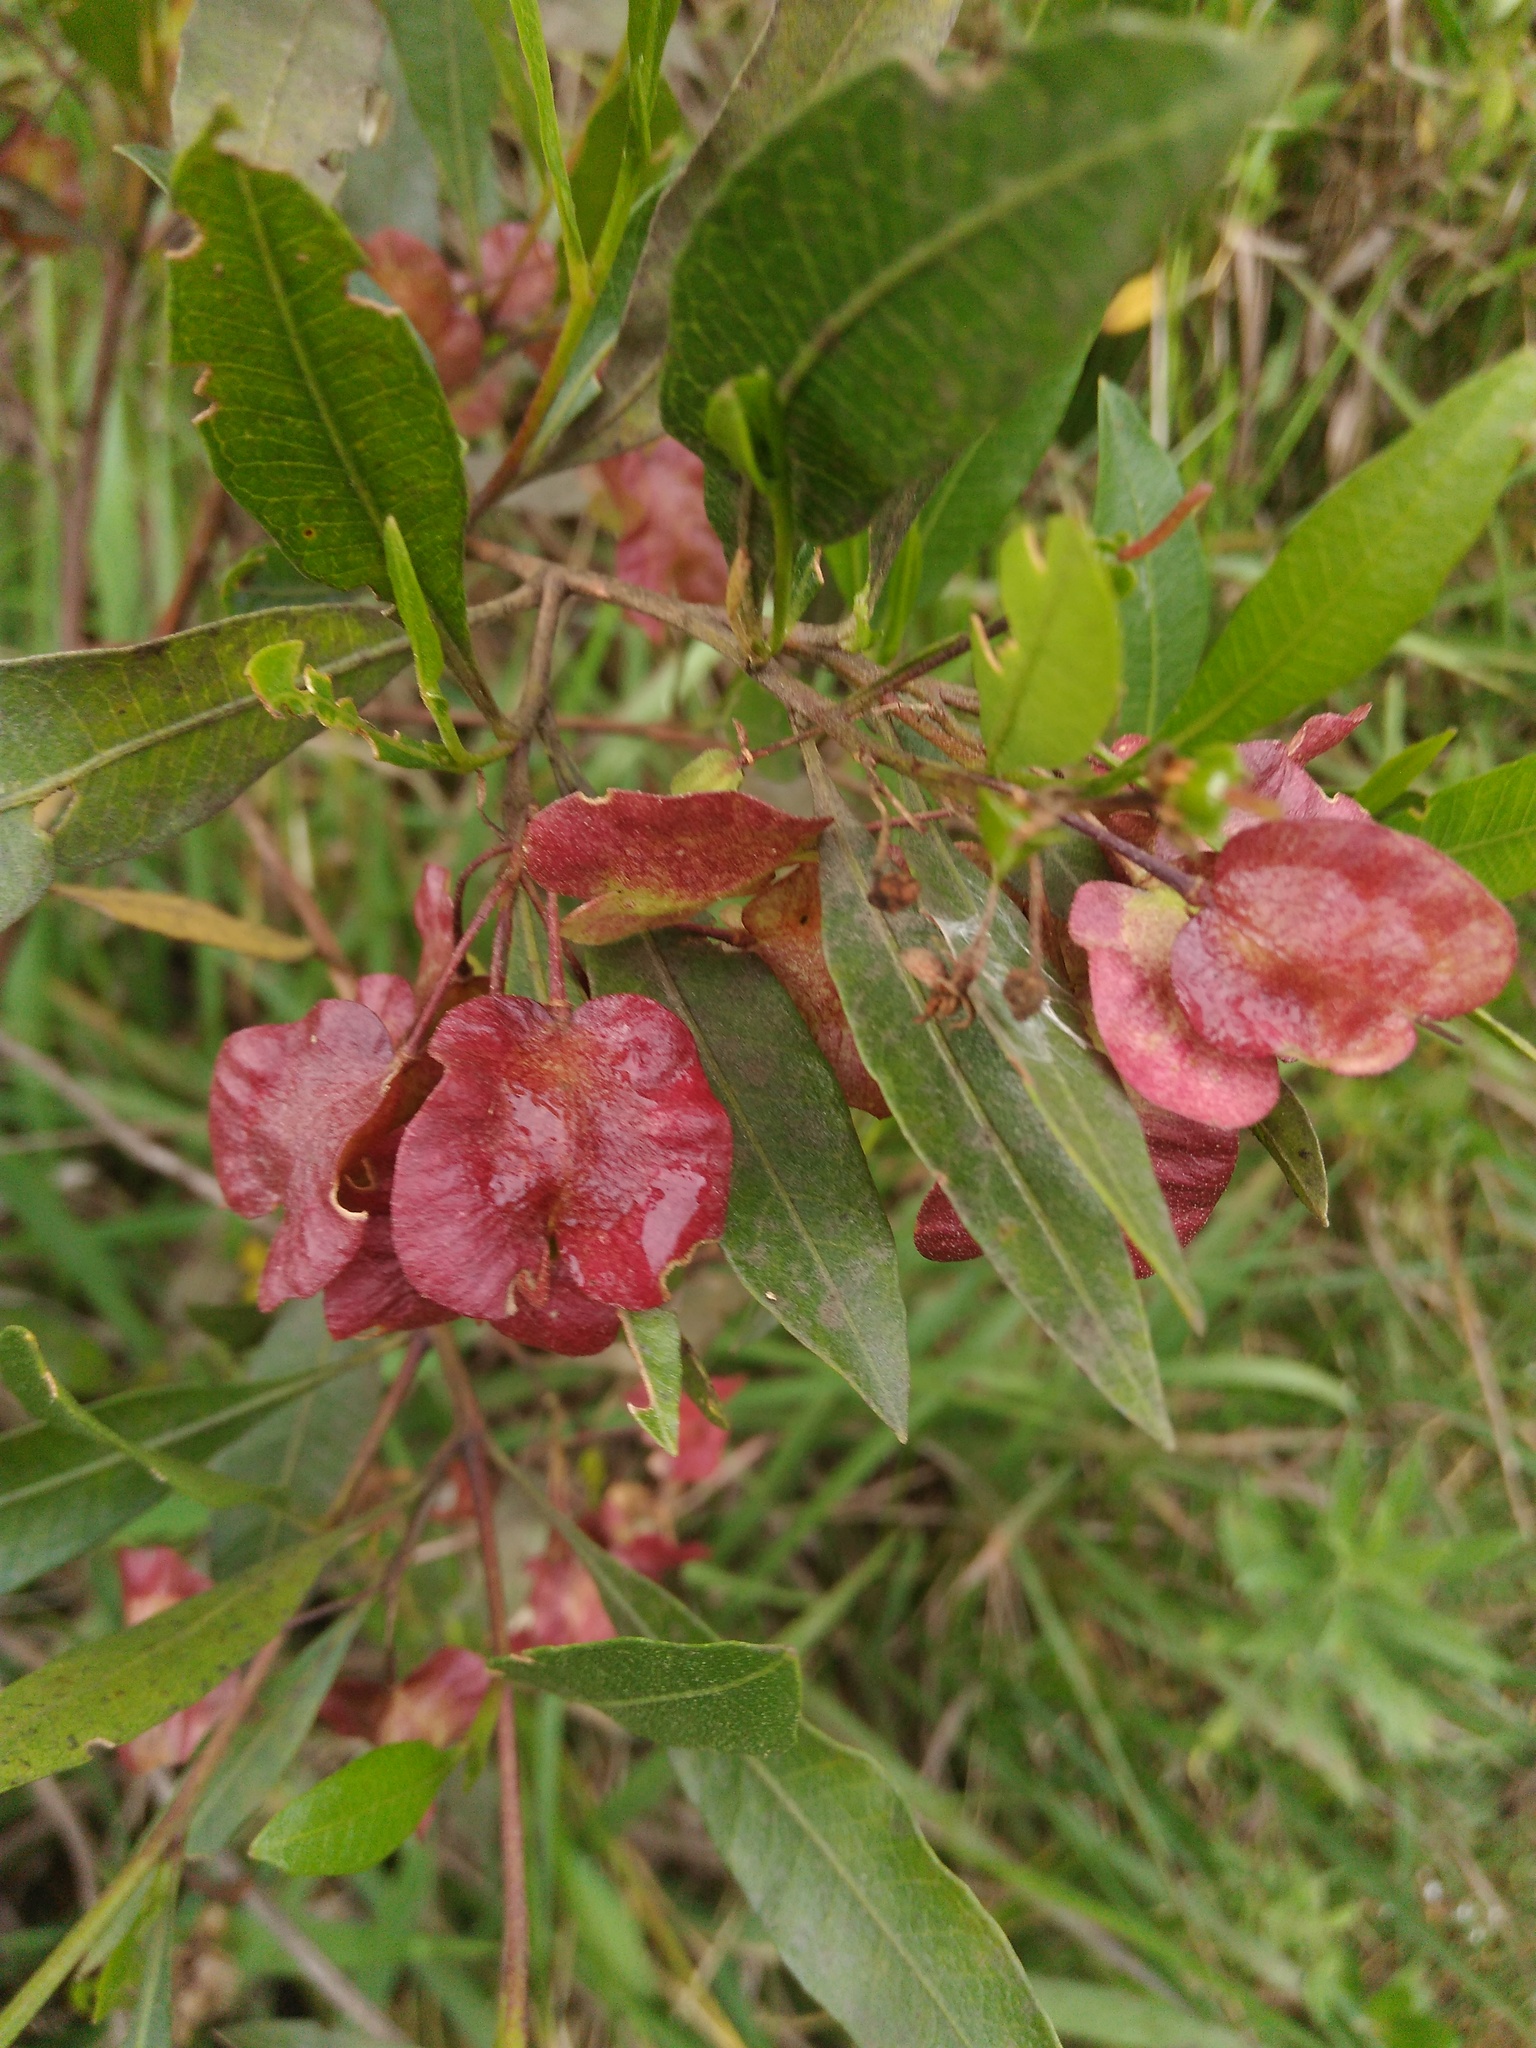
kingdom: Plantae
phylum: Tracheophyta
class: Magnoliopsida
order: Sapindales
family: Sapindaceae
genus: Dodonaea
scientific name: Dodonaea viscosa
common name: Hopbush
